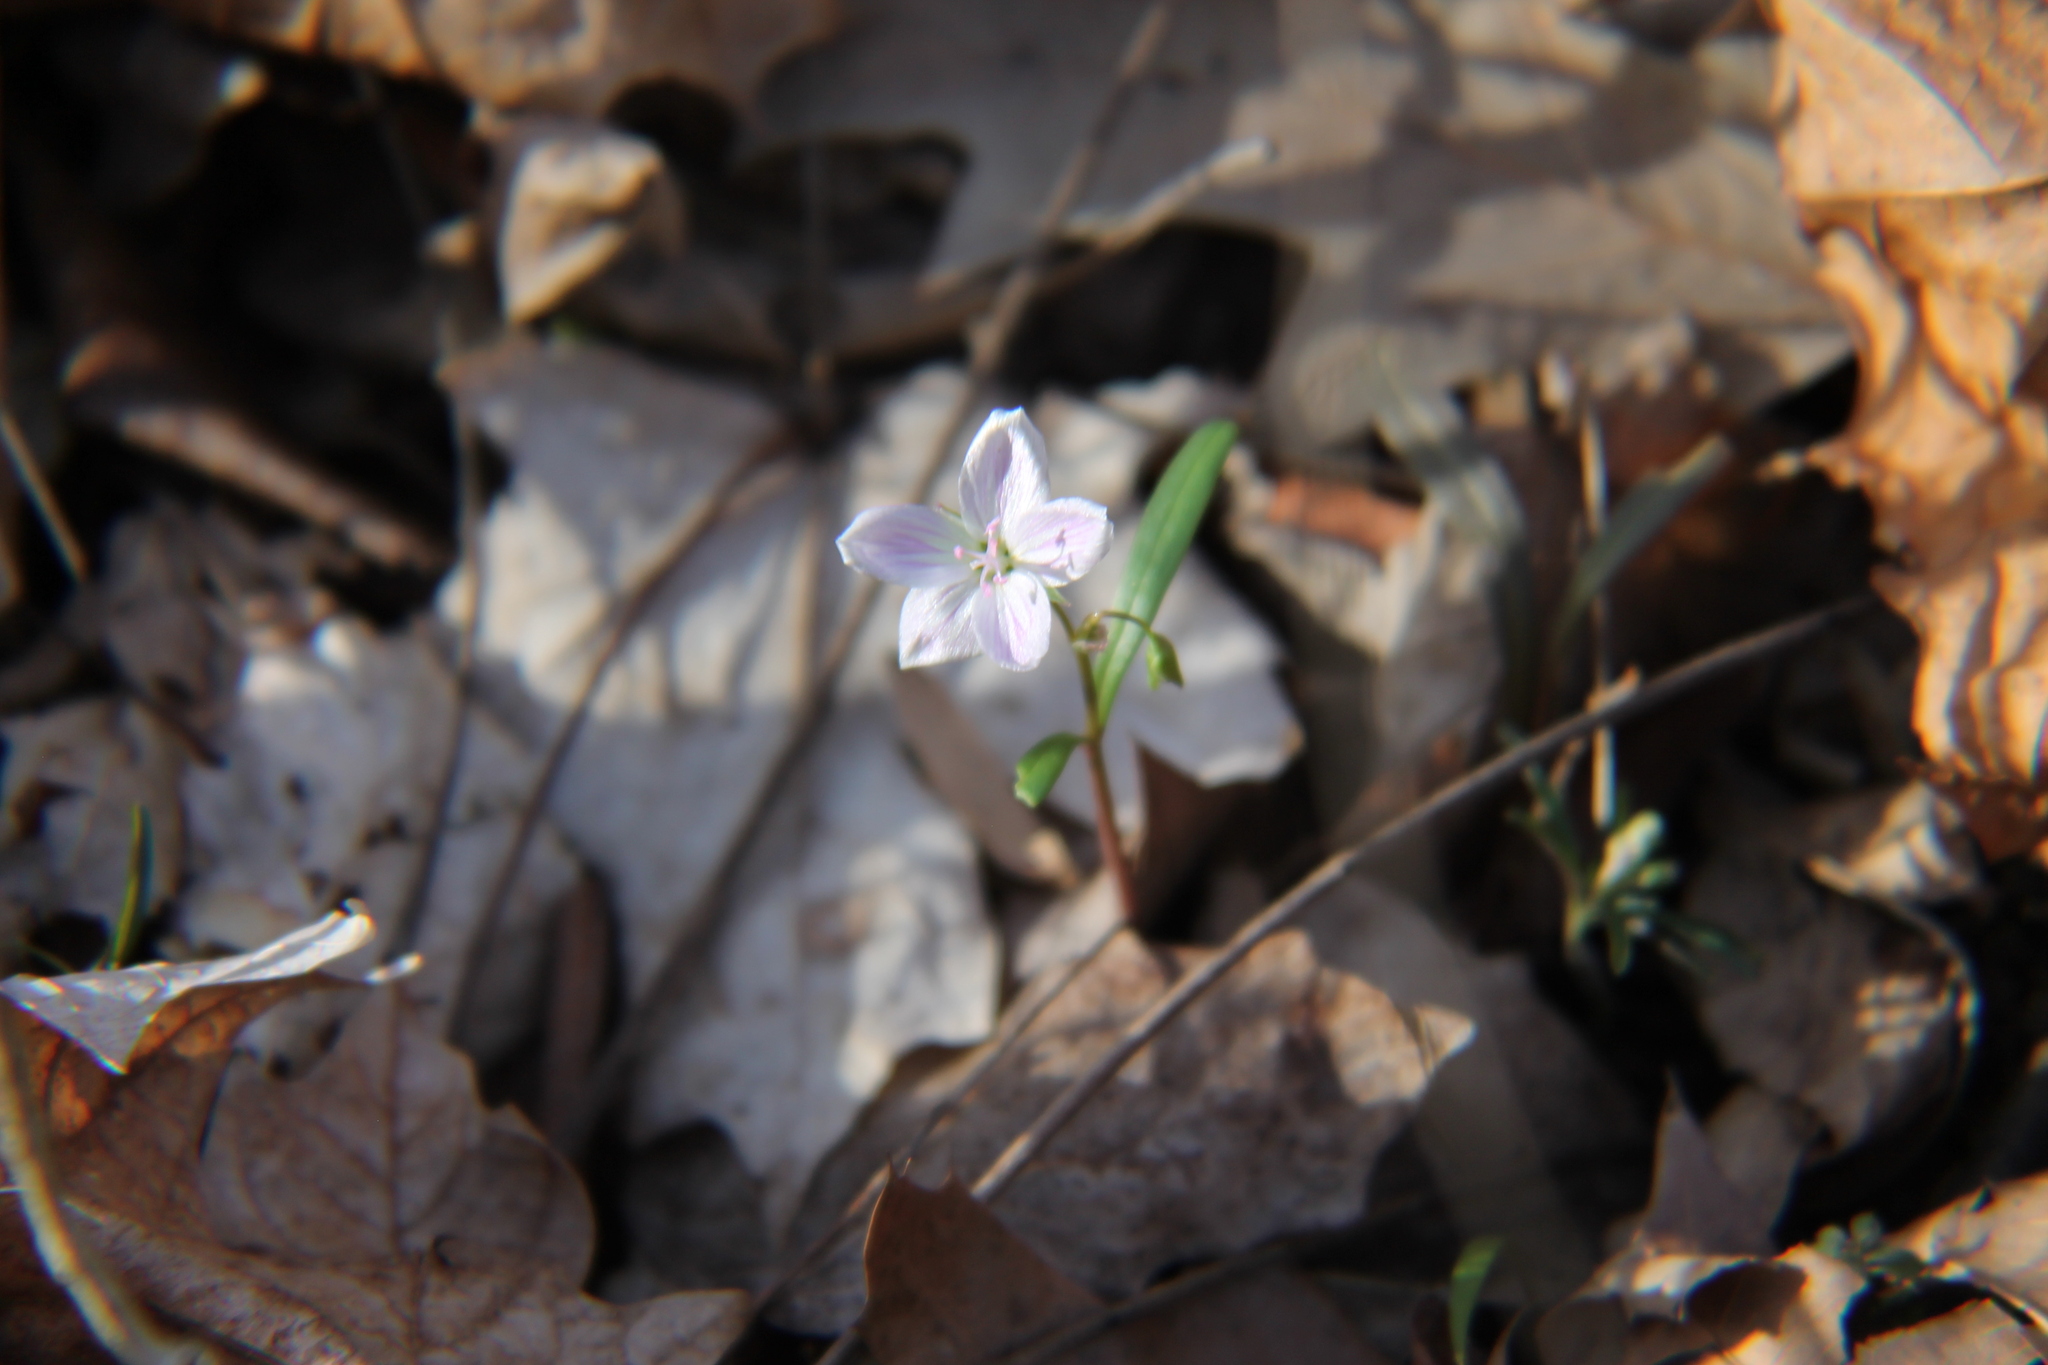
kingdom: Plantae
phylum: Tracheophyta
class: Magnoliopsida
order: Caryophyllales
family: Montiaceae
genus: Claytonia
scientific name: Claytonia virginica
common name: Virginia springbeauty
